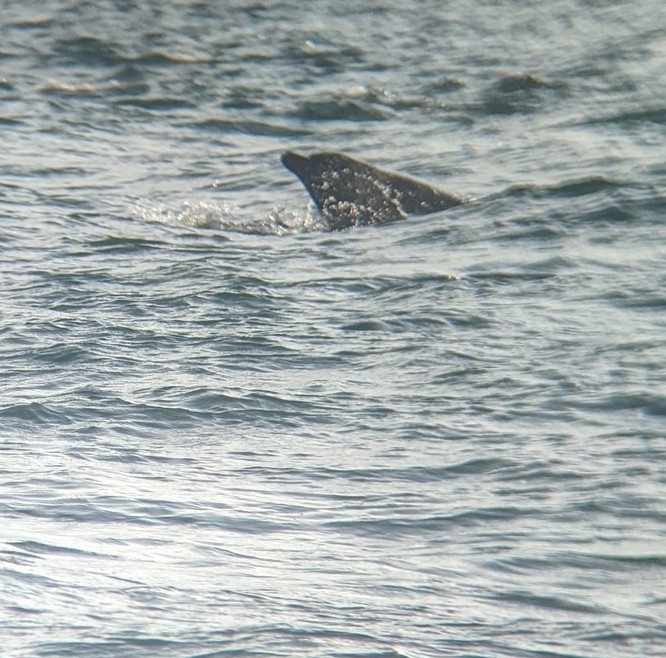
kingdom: Animalia
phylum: Chordata
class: Mammalia
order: Cetacea
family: Delphinidae
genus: Tursiops
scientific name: Tursiops truncatus
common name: Bottlenose dolphin
